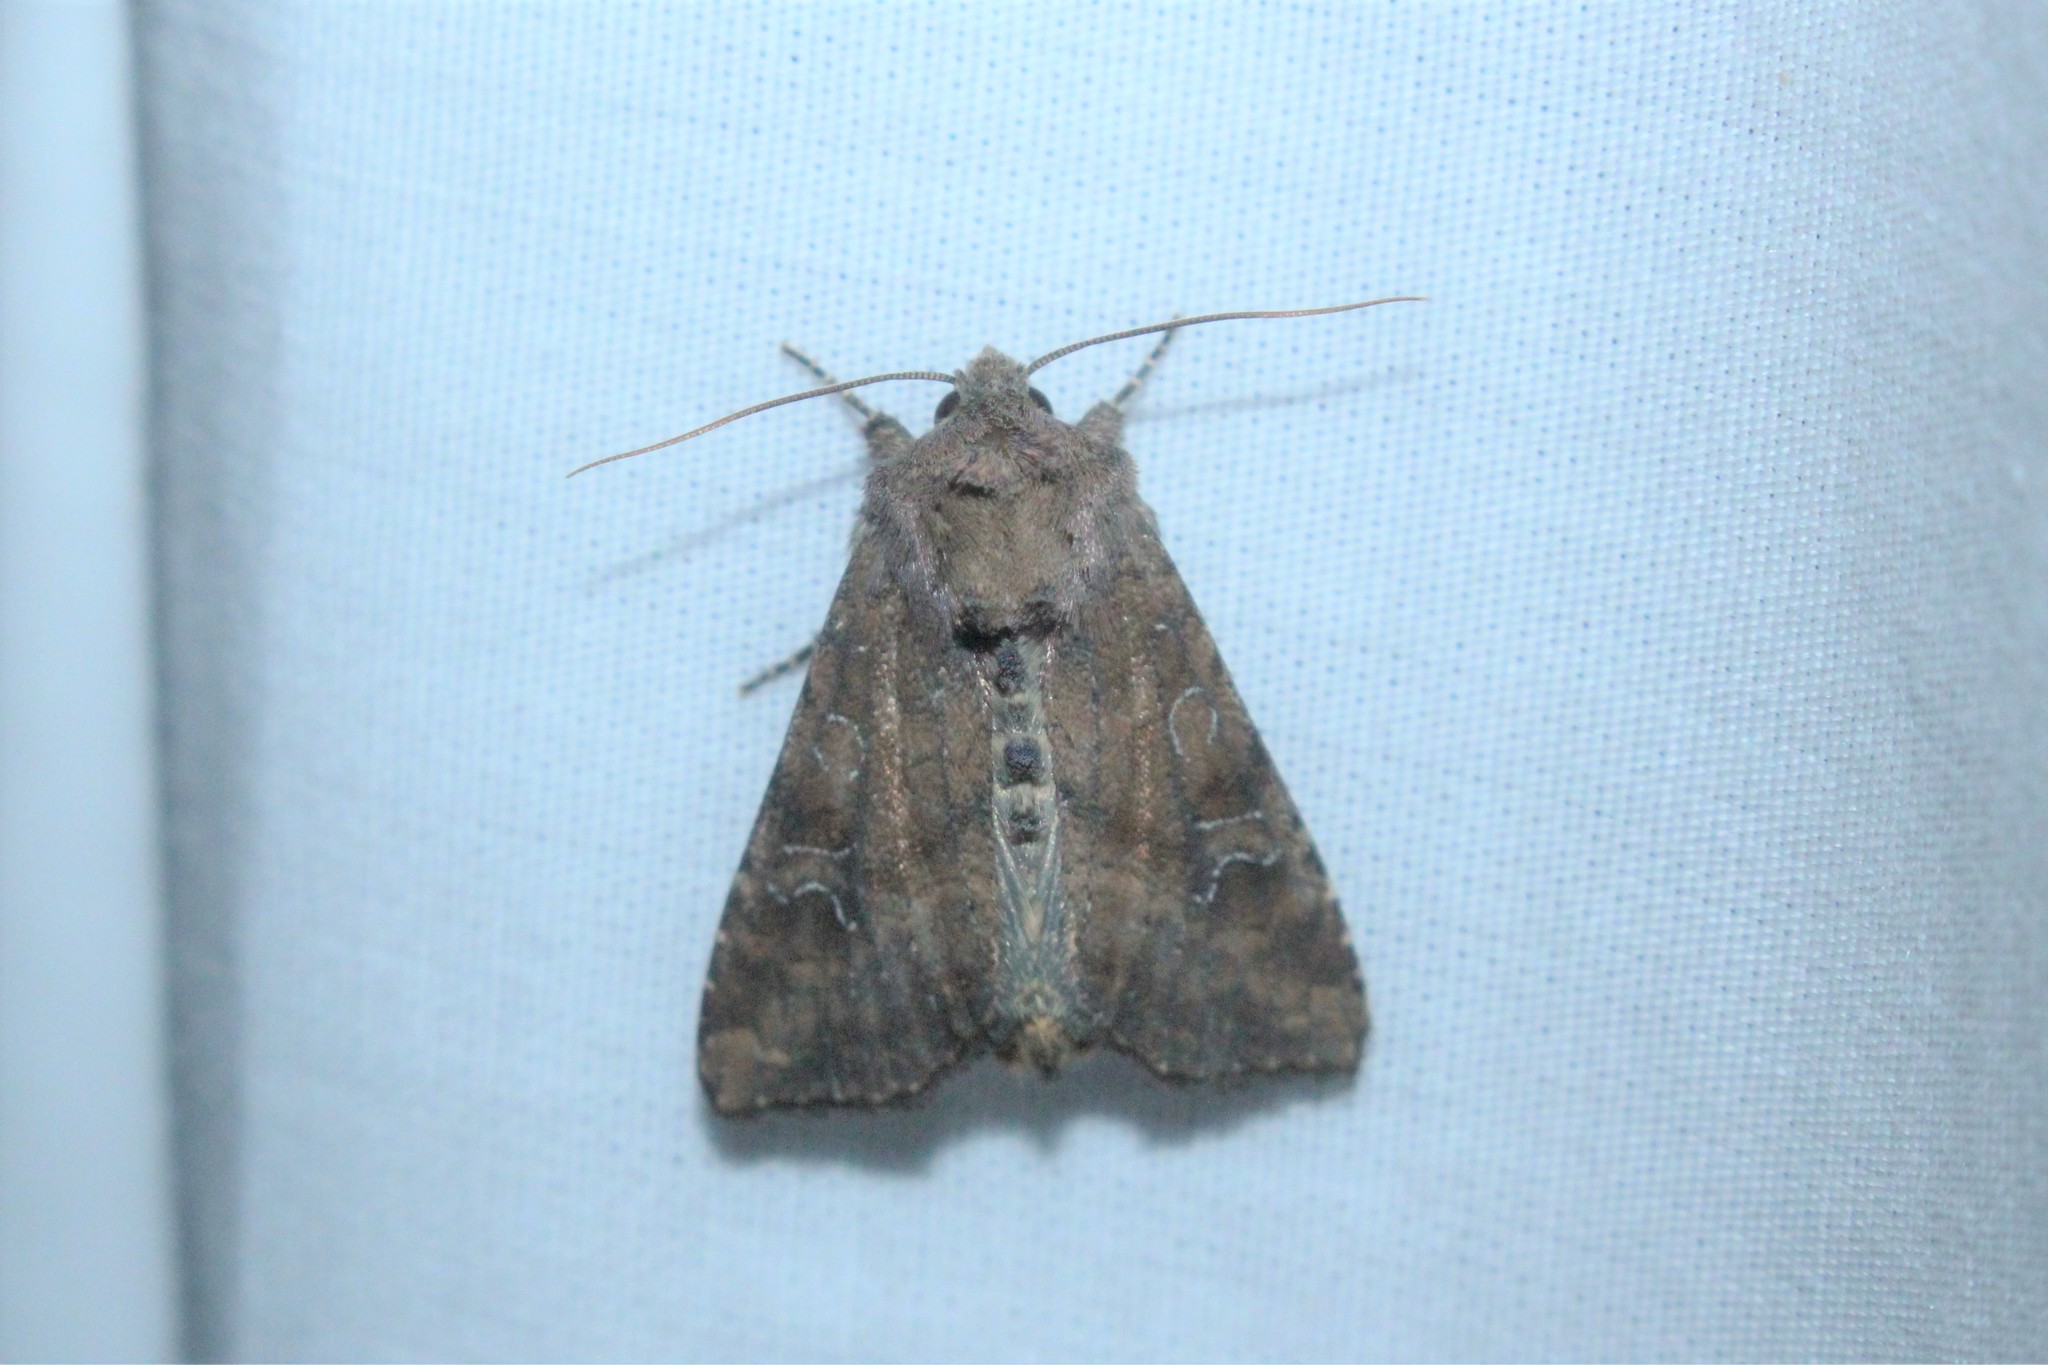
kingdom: Animalia
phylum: Arthropoda
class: Insecta
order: Lepidoptera
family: Noctuidae
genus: Loscopia
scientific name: Loscopia velata
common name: Veiled ear moth
